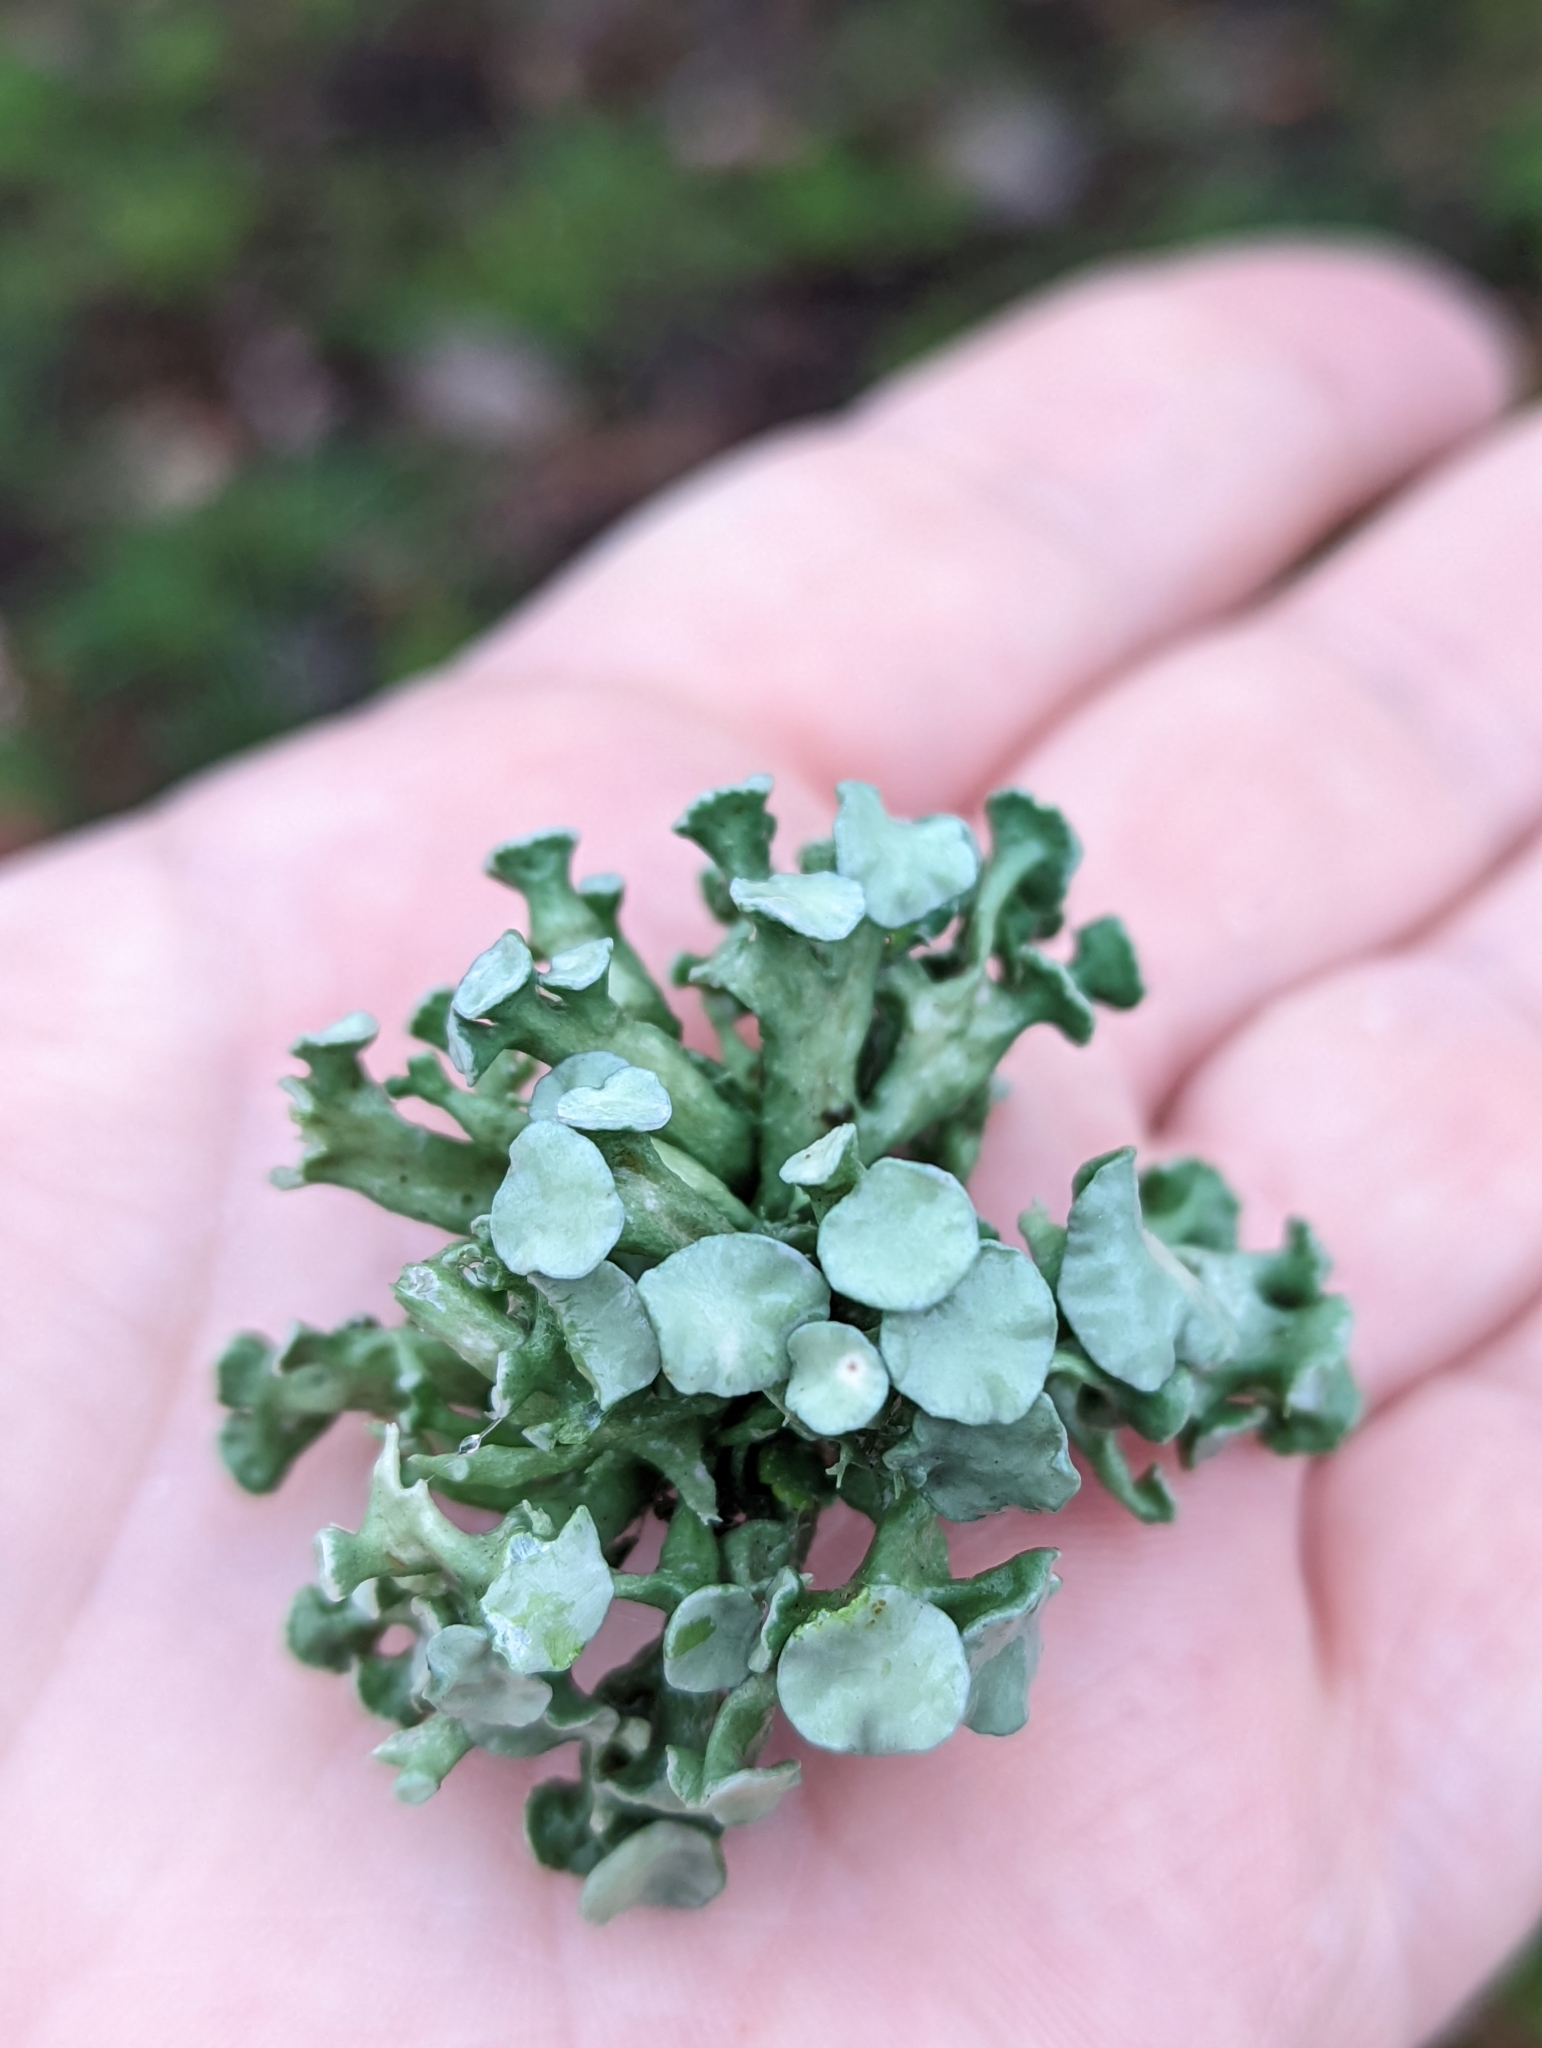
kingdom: Fungi
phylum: Ascomycota
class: Lecanoromycetes
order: Lecanorales
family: Ramalinaceae
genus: Ramalina
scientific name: Ramalina fastigiata
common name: Dotted ribbon lichen
